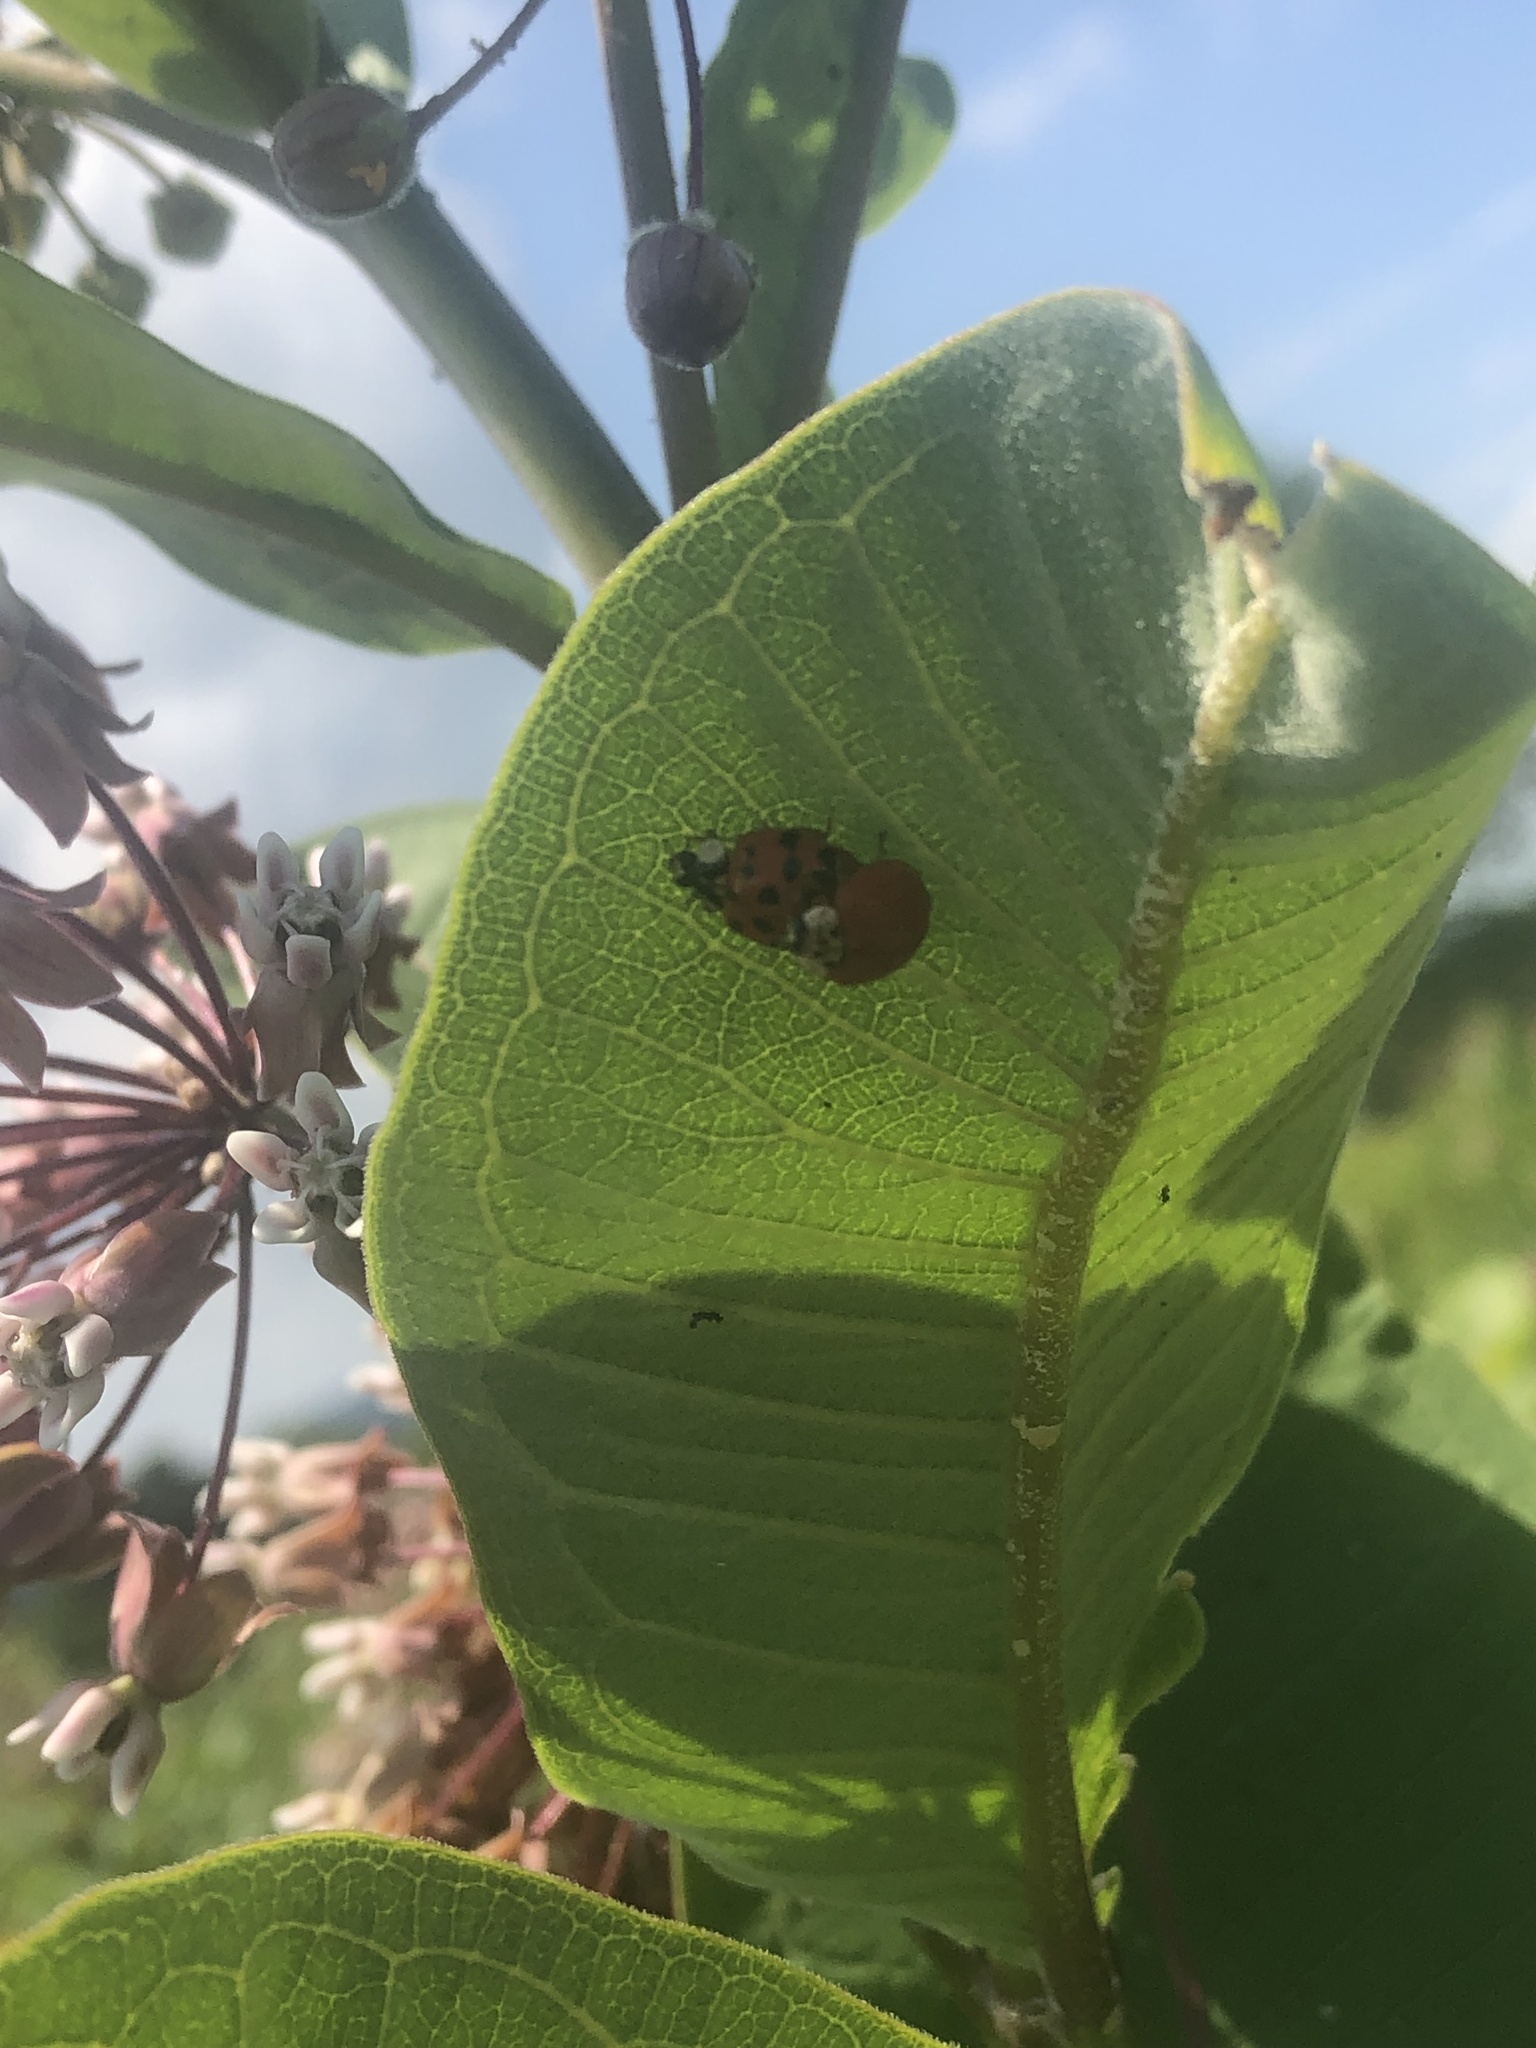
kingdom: Animalia
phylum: Arthropoda
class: Insecta
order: Coleoptera
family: Coccinellidae
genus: Harmonia
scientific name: Harmonia axyridis
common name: Harlequin ladybird
